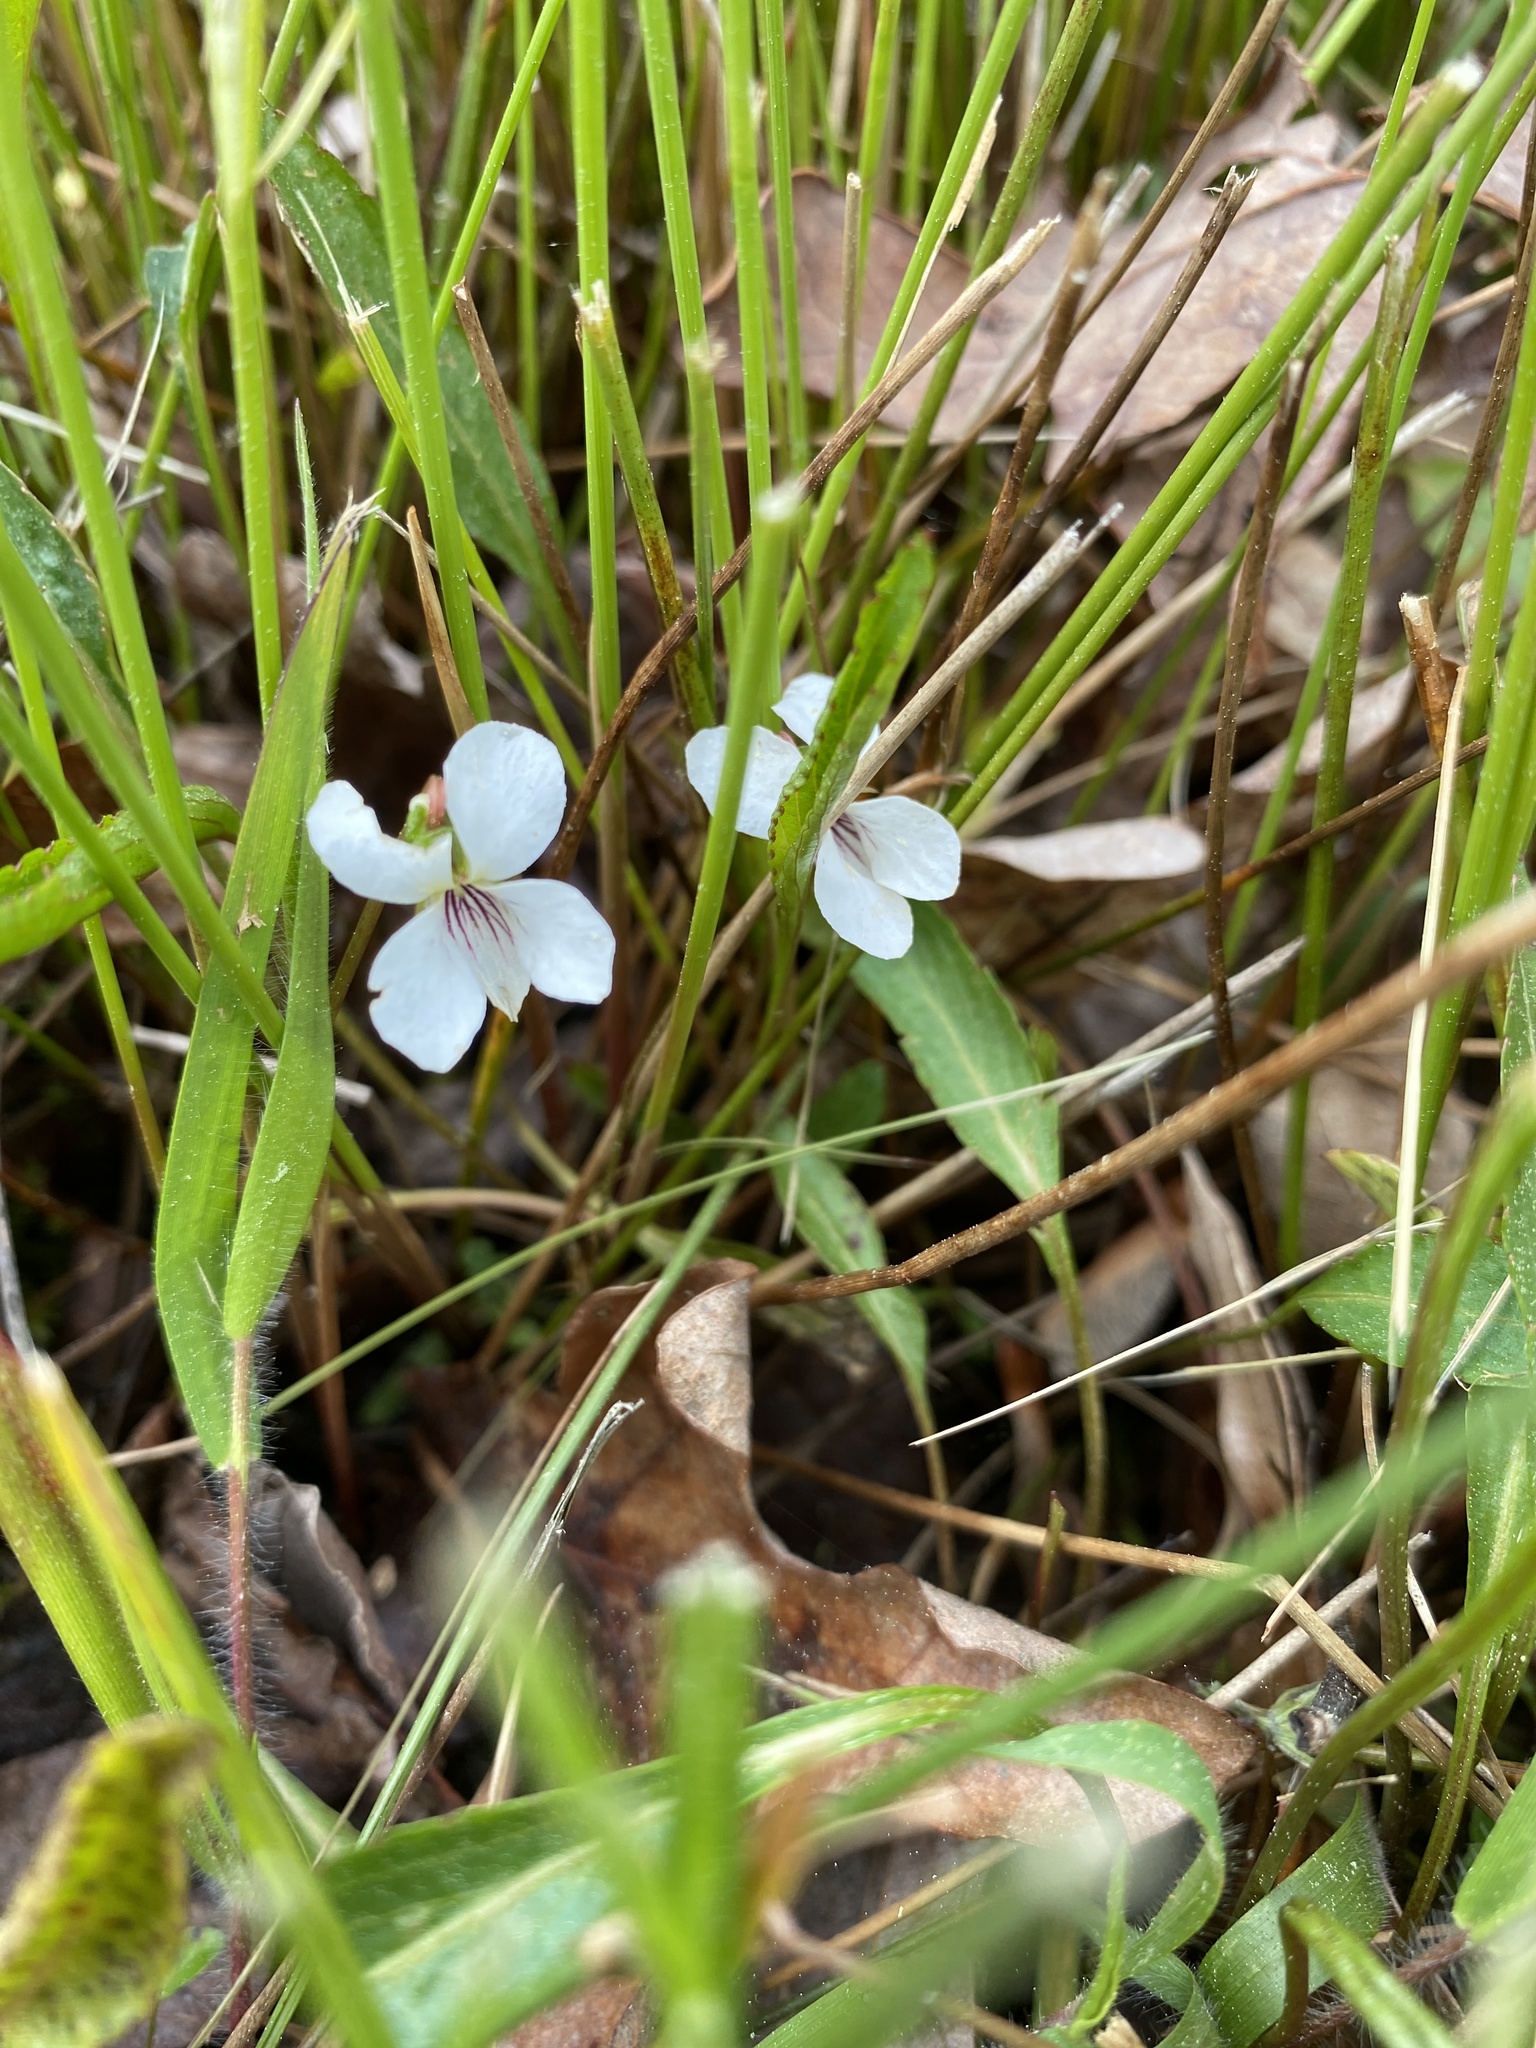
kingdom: Plantae
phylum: Tracheophyta
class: Magnoliopsida
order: Malpighiales
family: Violaceae
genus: Viola
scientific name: Viola lanceolata
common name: Bog white violet
